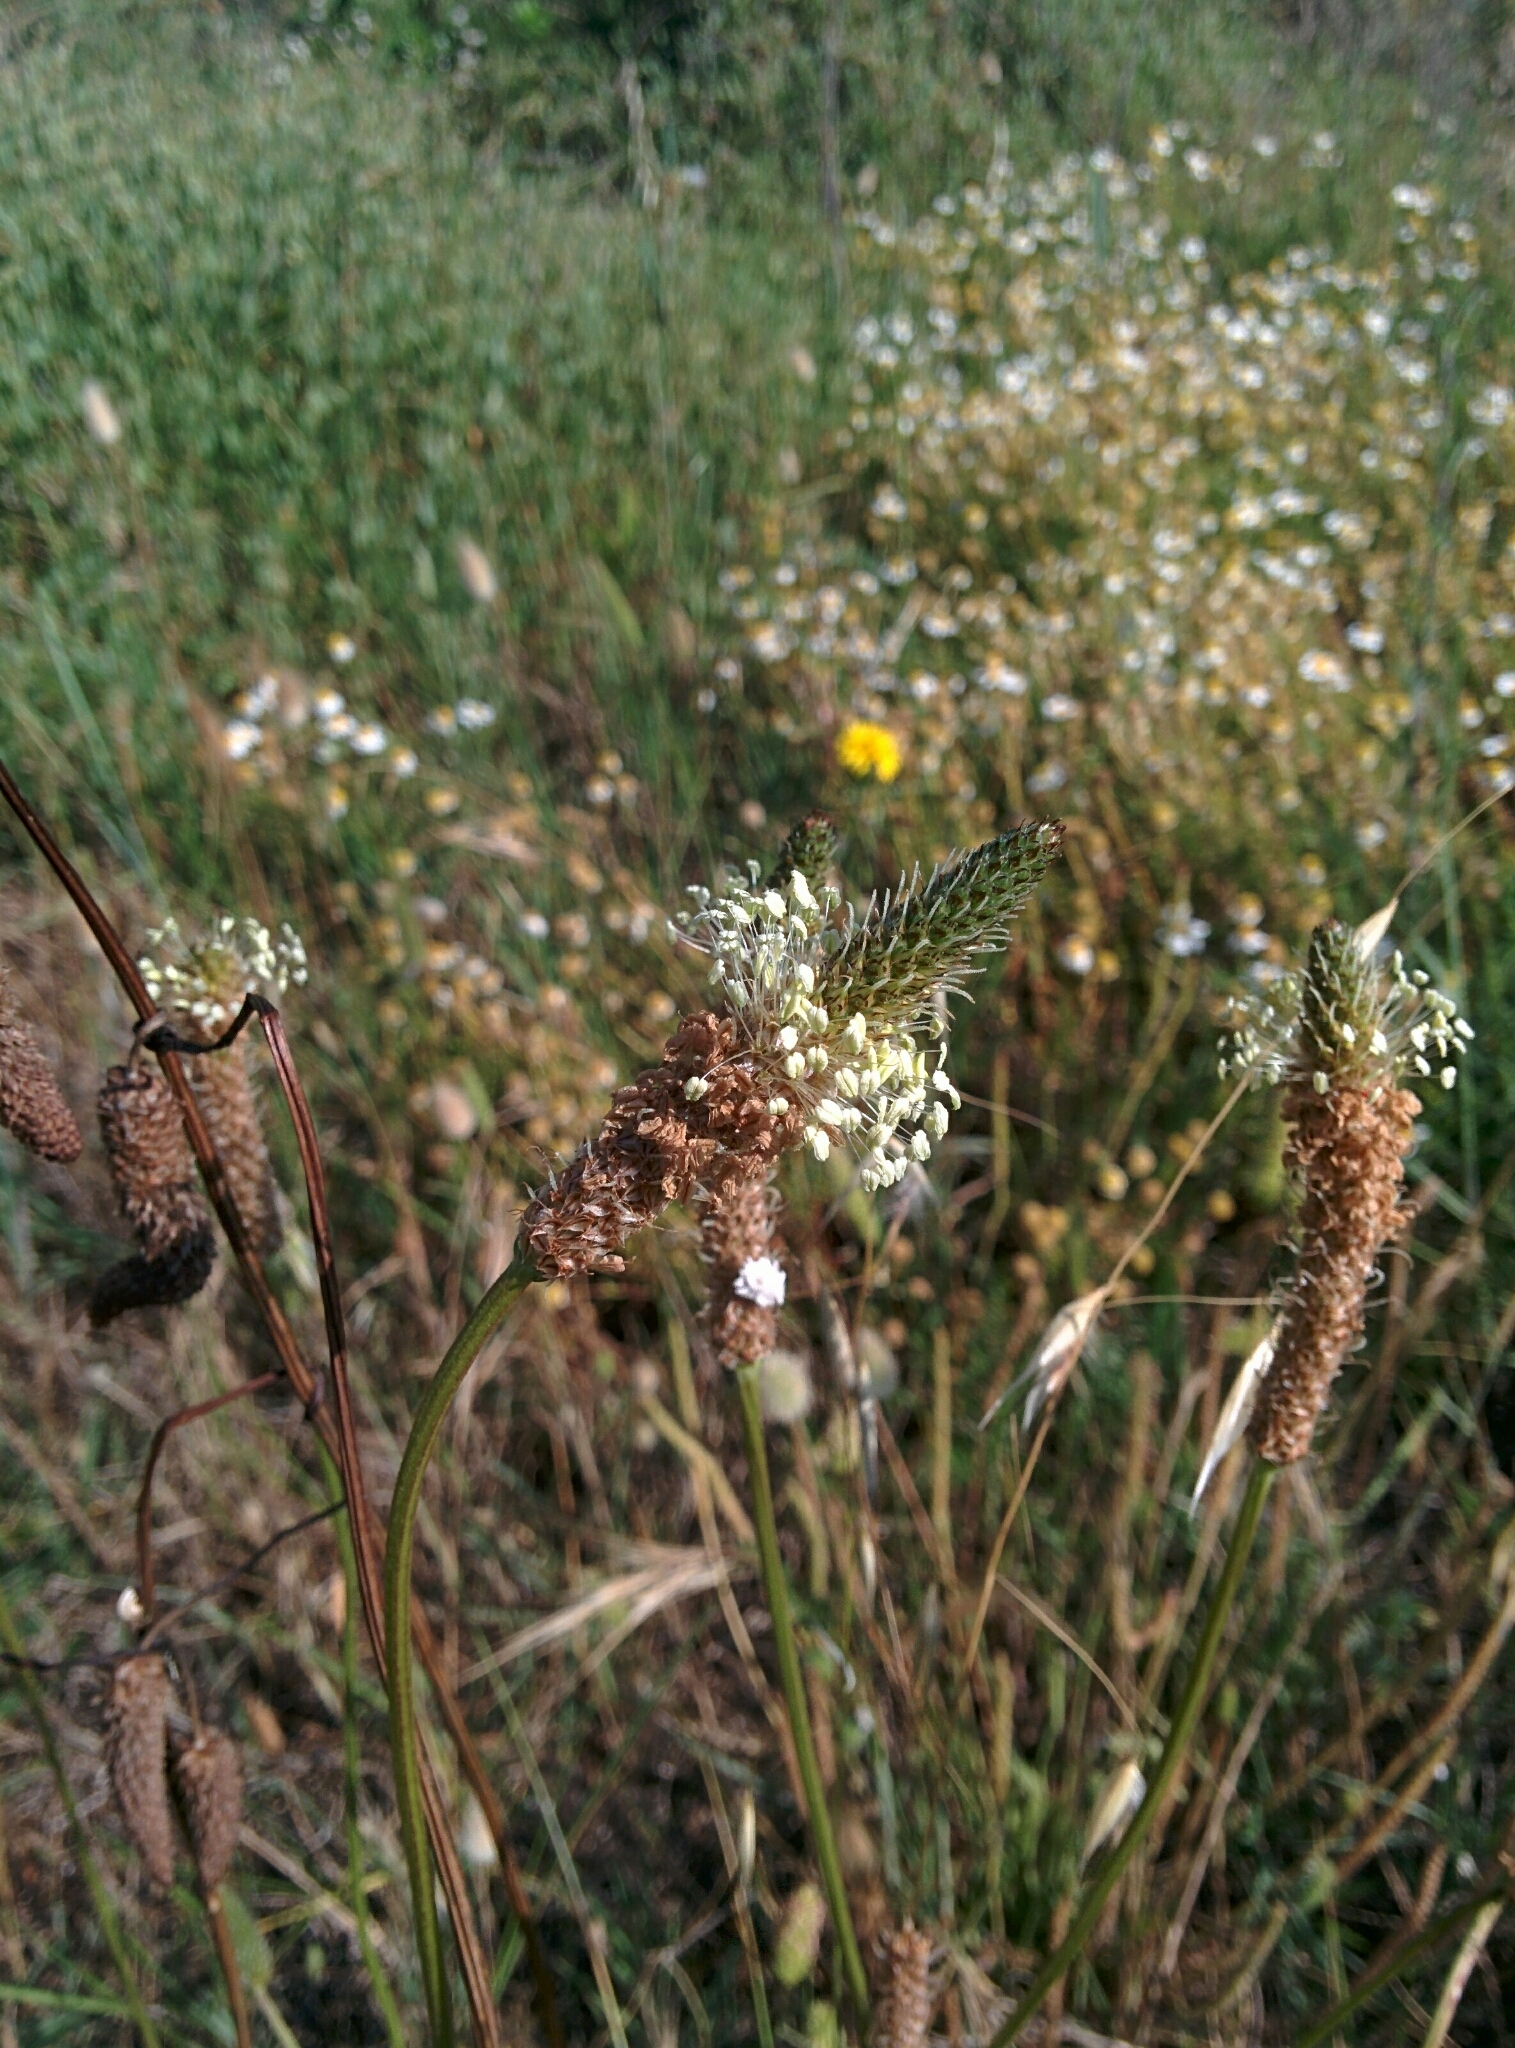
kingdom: Plantae
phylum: Tracheophyta
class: Magnoliopsida
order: Lamiales
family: Plantaginaceae
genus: Plantago
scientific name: Plantago lanceolata
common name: Ribwort plantain
